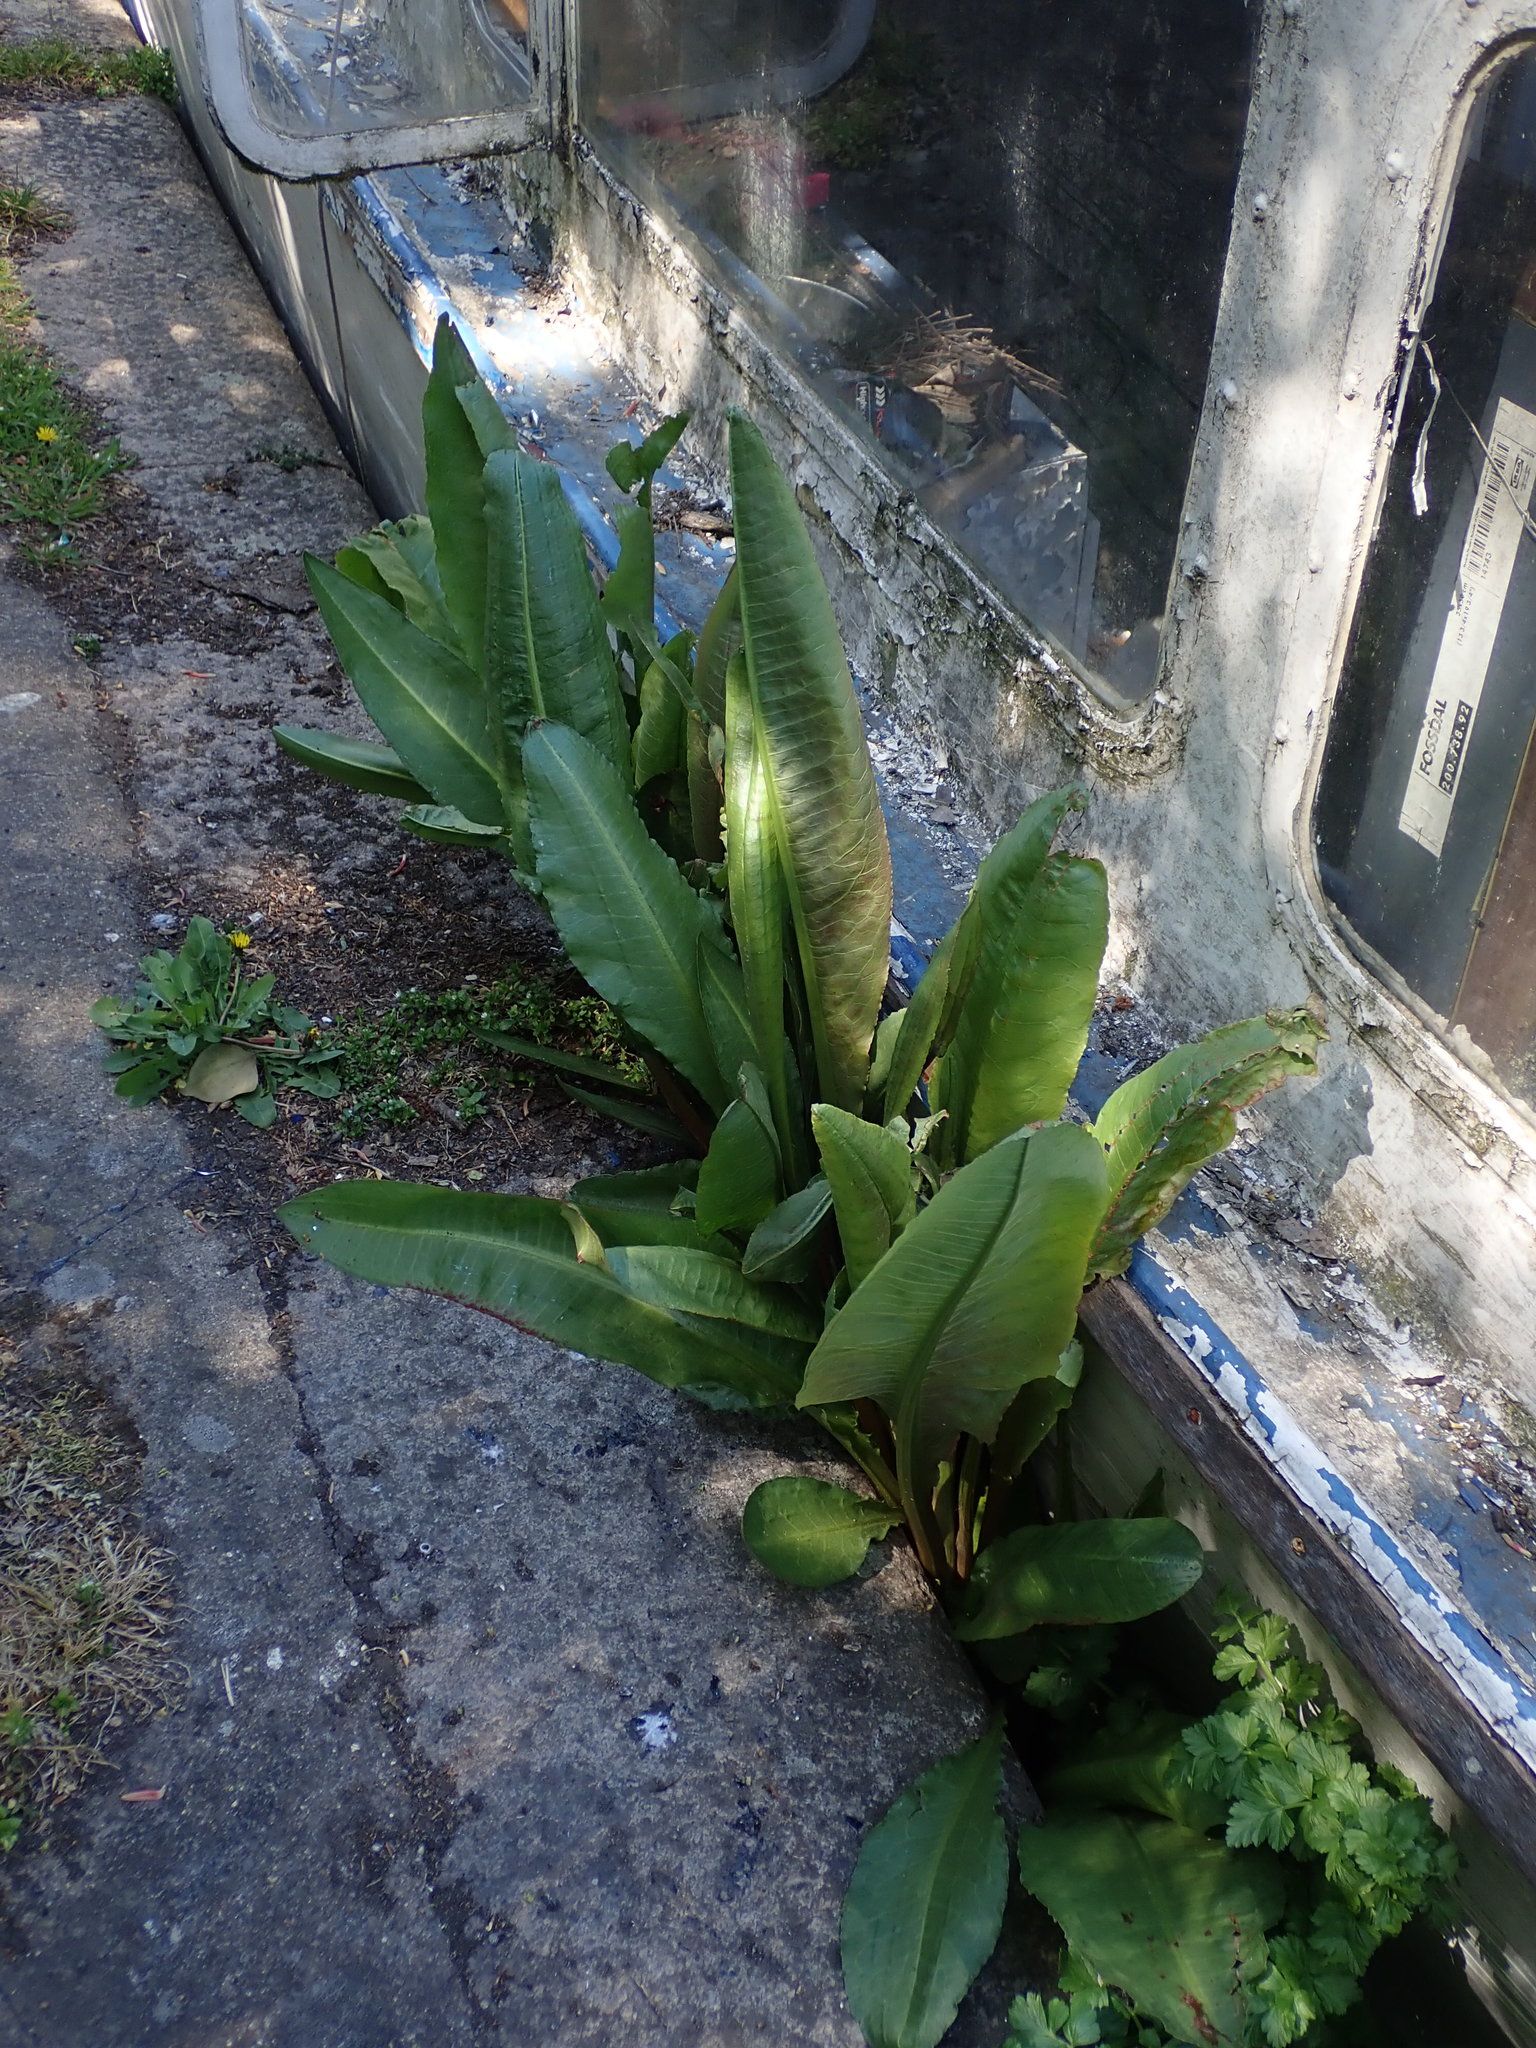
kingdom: Plantae
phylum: Tracheophyta
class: Magnoliopsida
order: Caryophyllales
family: Polygonaceae
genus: Rumex
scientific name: Rumex hydrolapathum
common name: Water dock
